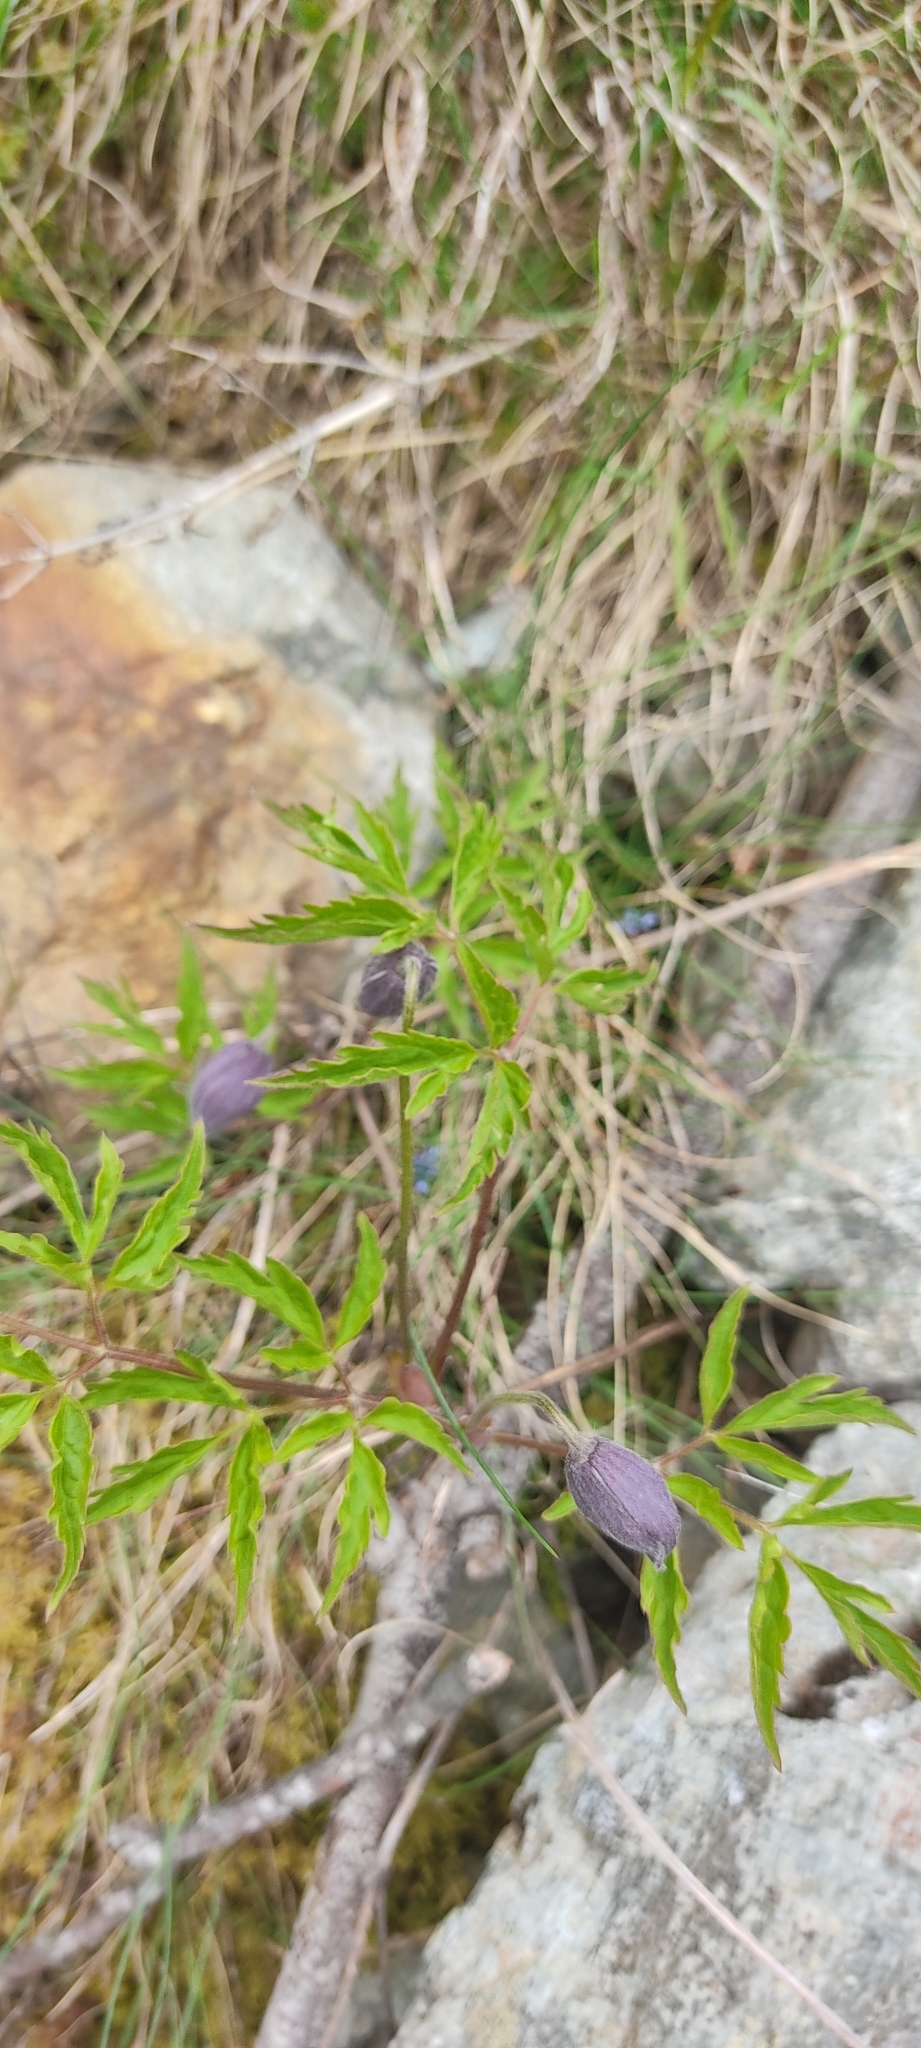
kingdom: Plantae
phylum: Tracheophyta
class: Magnoliopsida
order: Ranunculales
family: Ranunculaceae
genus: Clematis
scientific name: Clematis alpina
